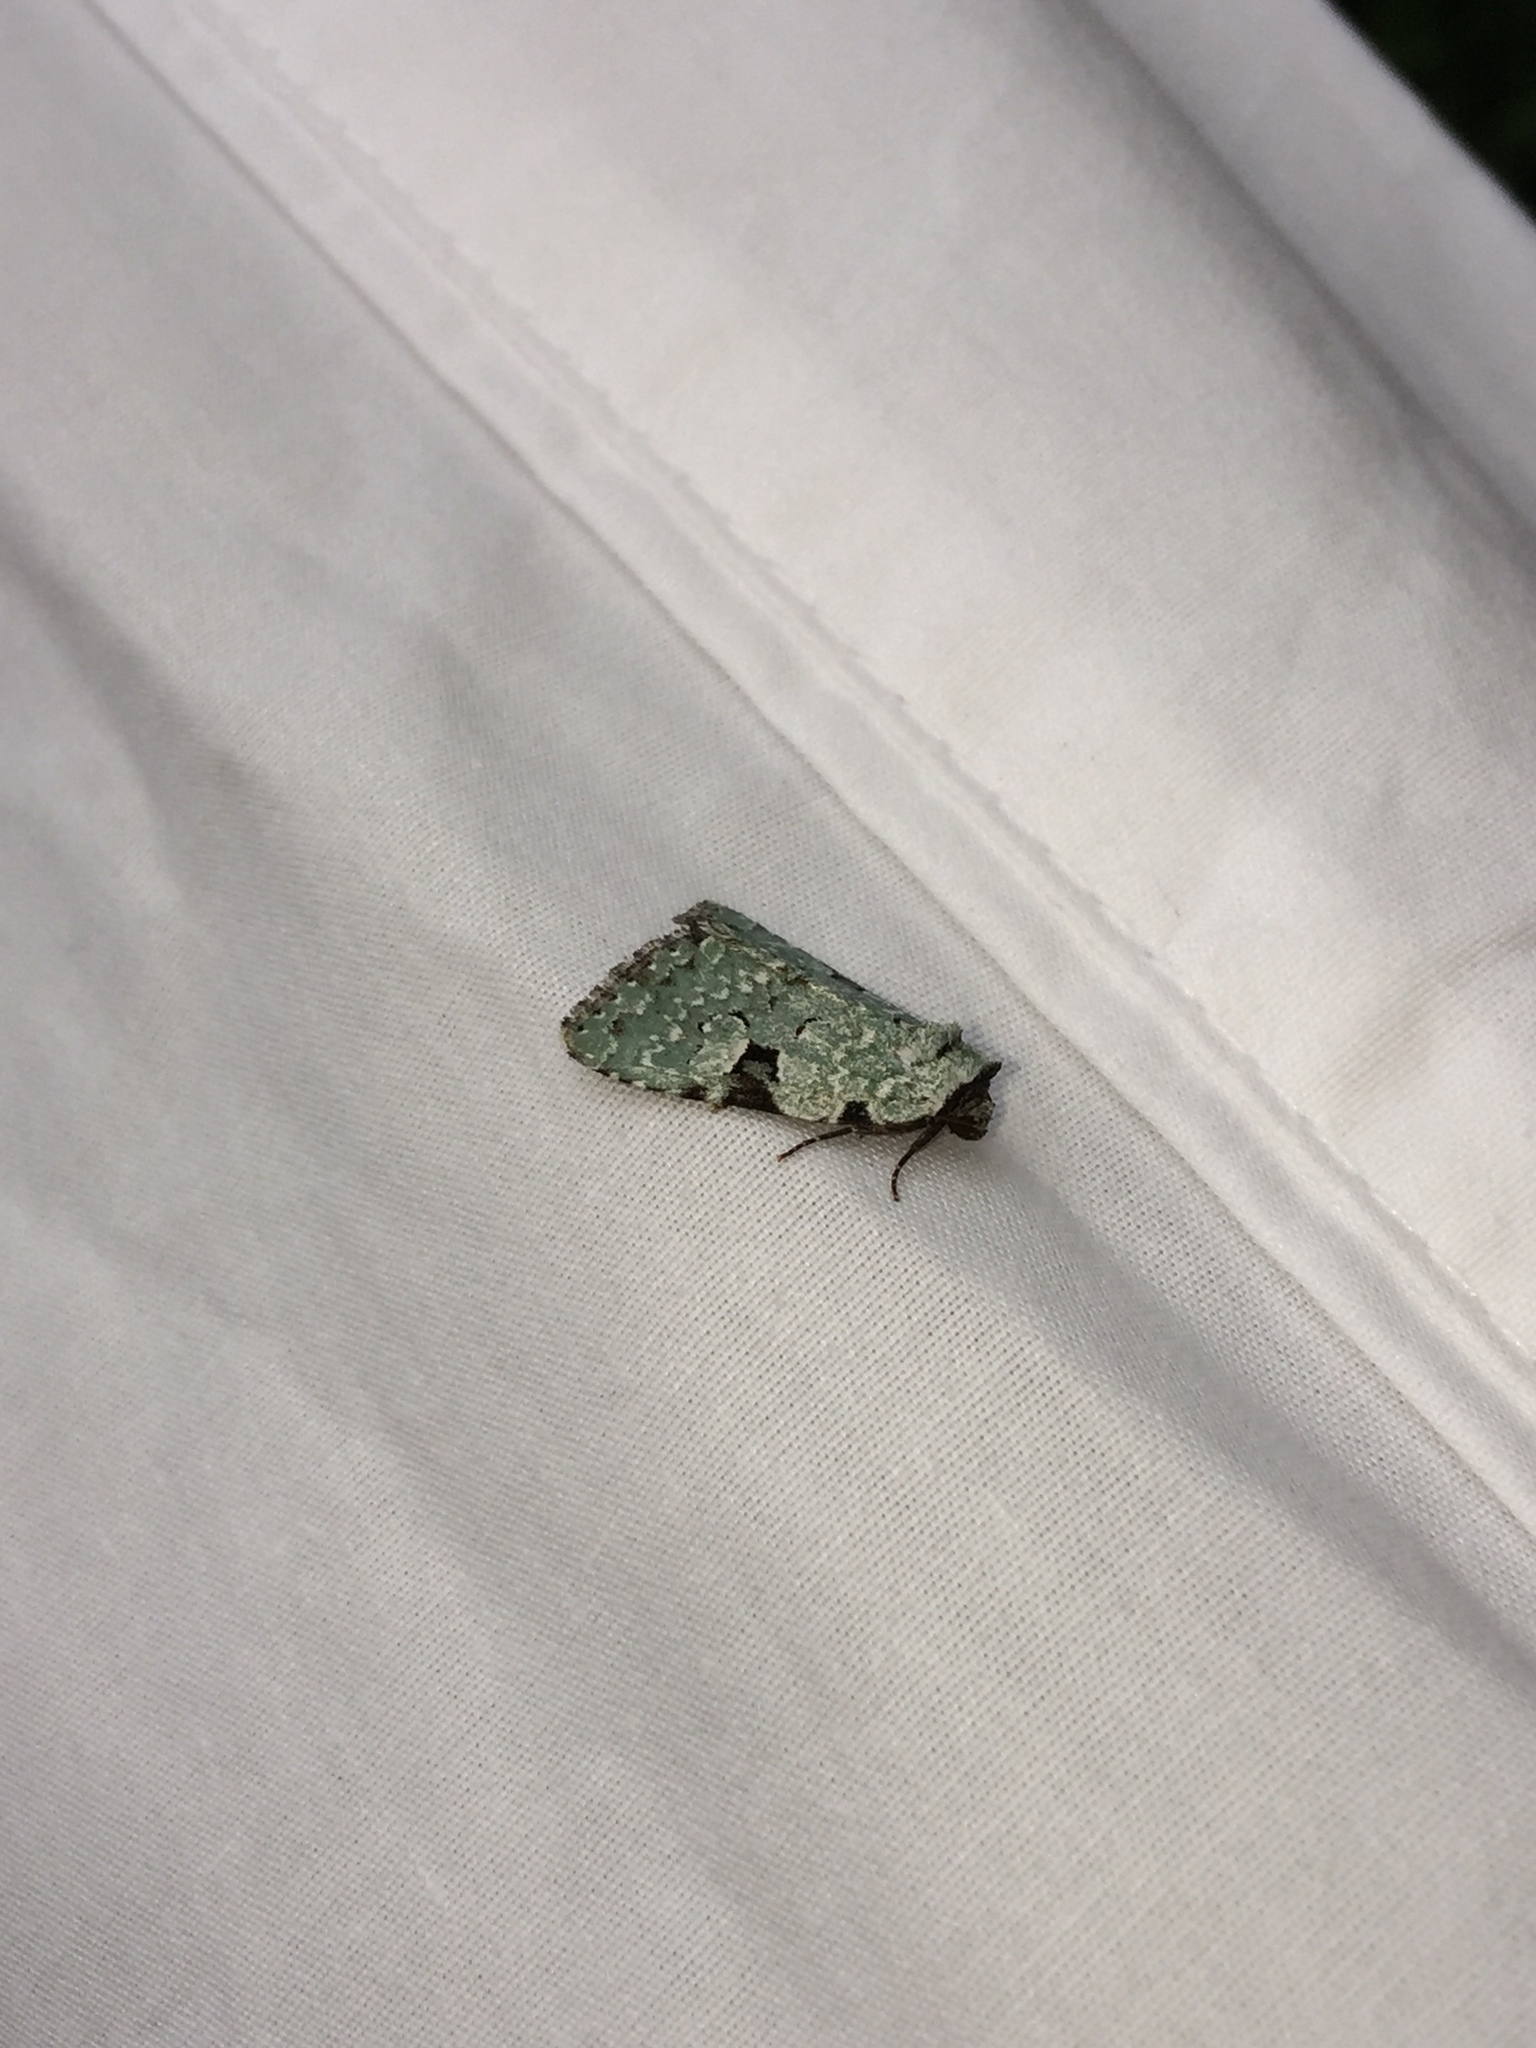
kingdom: Animalia
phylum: Arthropoda
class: Insecta
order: Lepidoptera
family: Noctuidae
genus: Leuconycta
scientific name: Leuconycta diphteroides
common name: Green leuconycta moth
